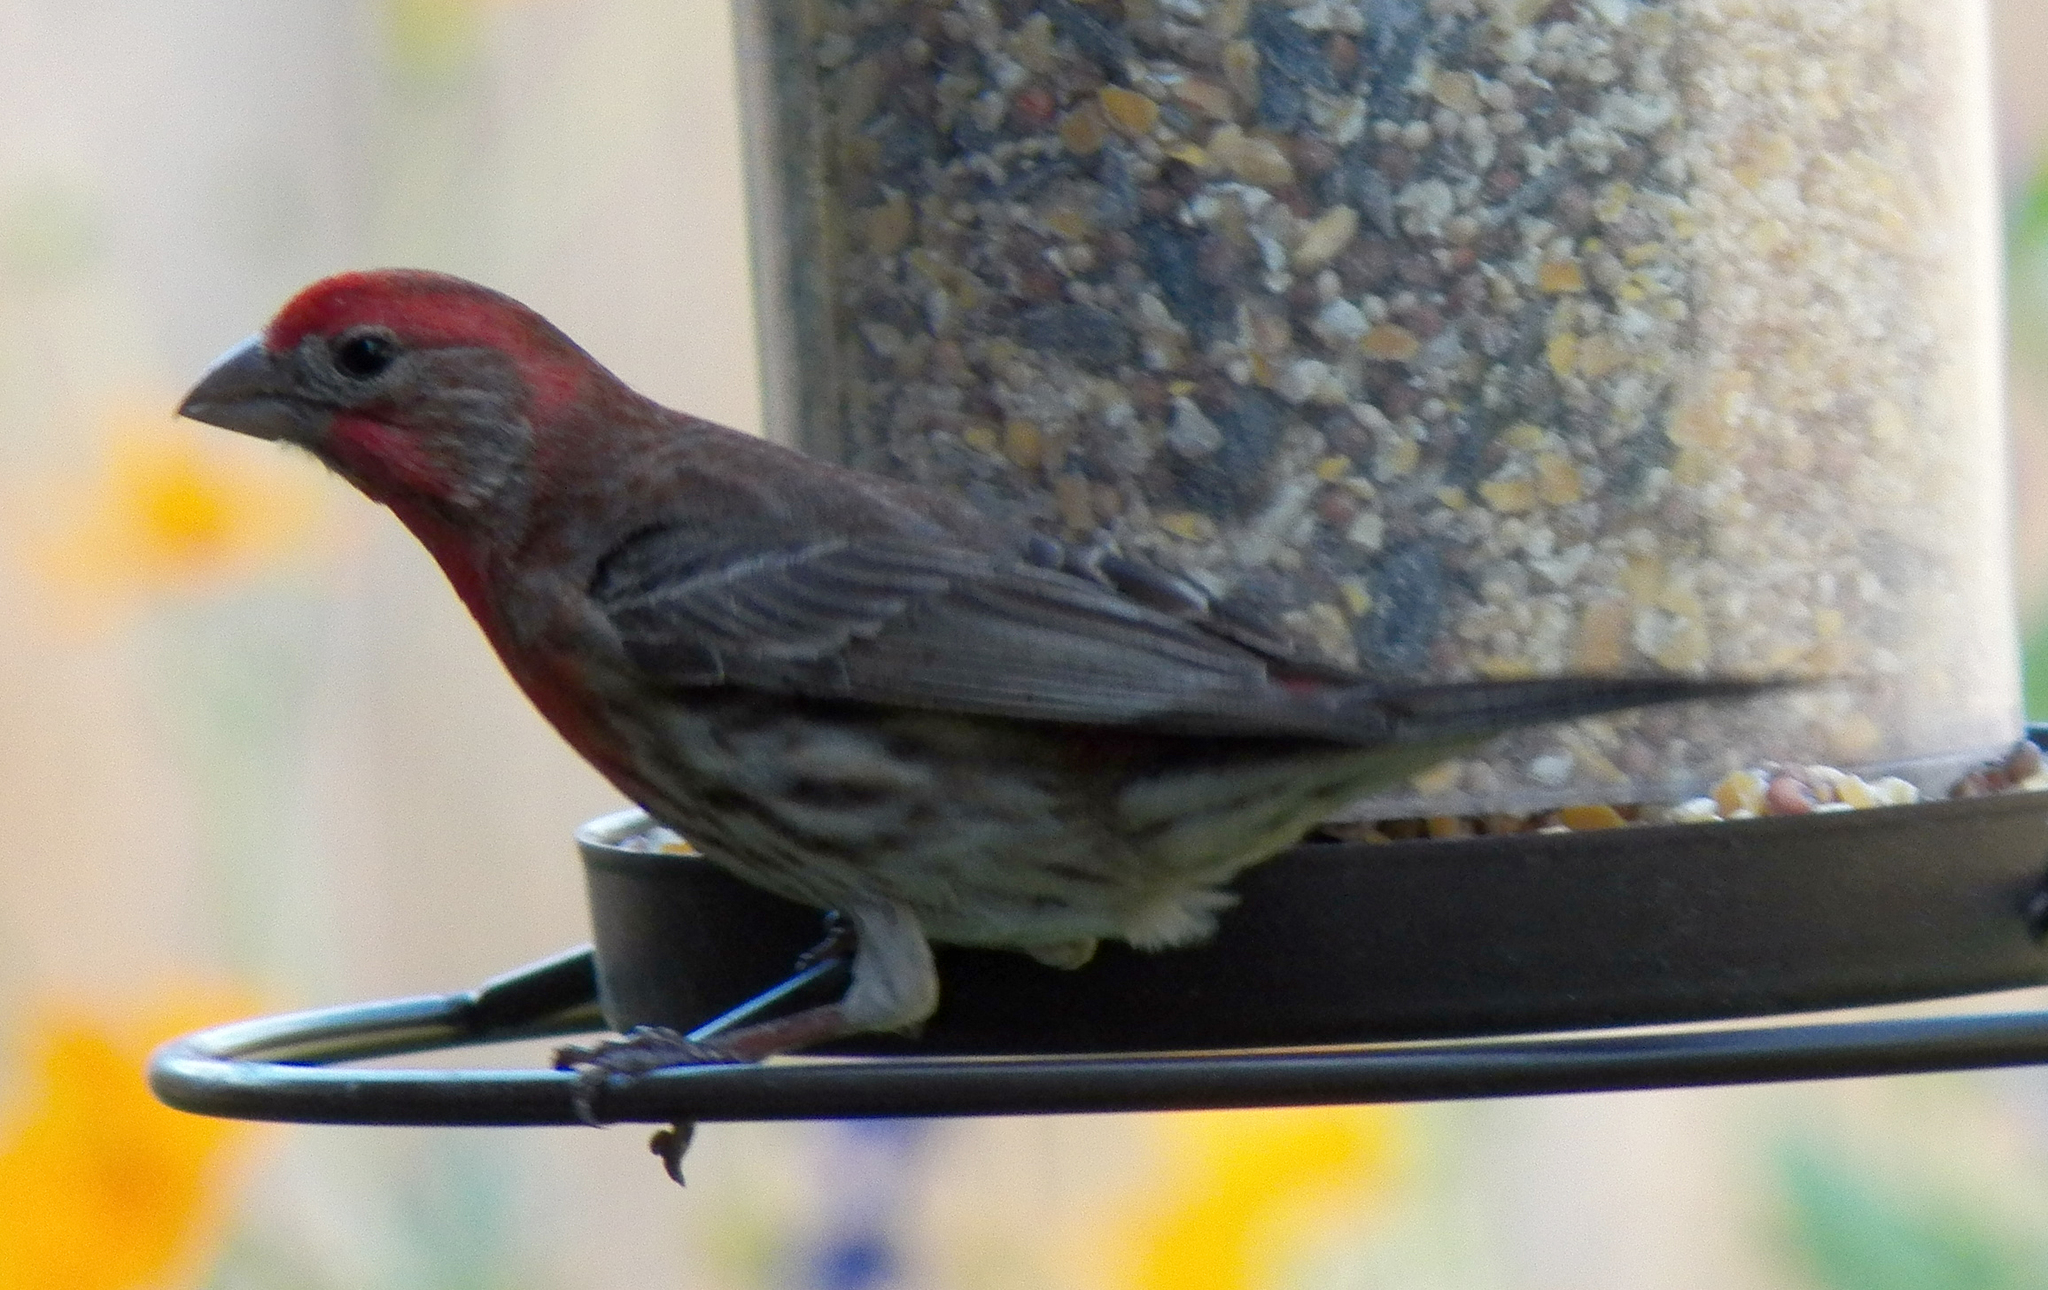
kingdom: Animalia
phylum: Chordata
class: Aves
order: Passeriformes
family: Fringillidae
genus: Haemorhous
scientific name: Haemorhous mexicanus
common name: House finch
